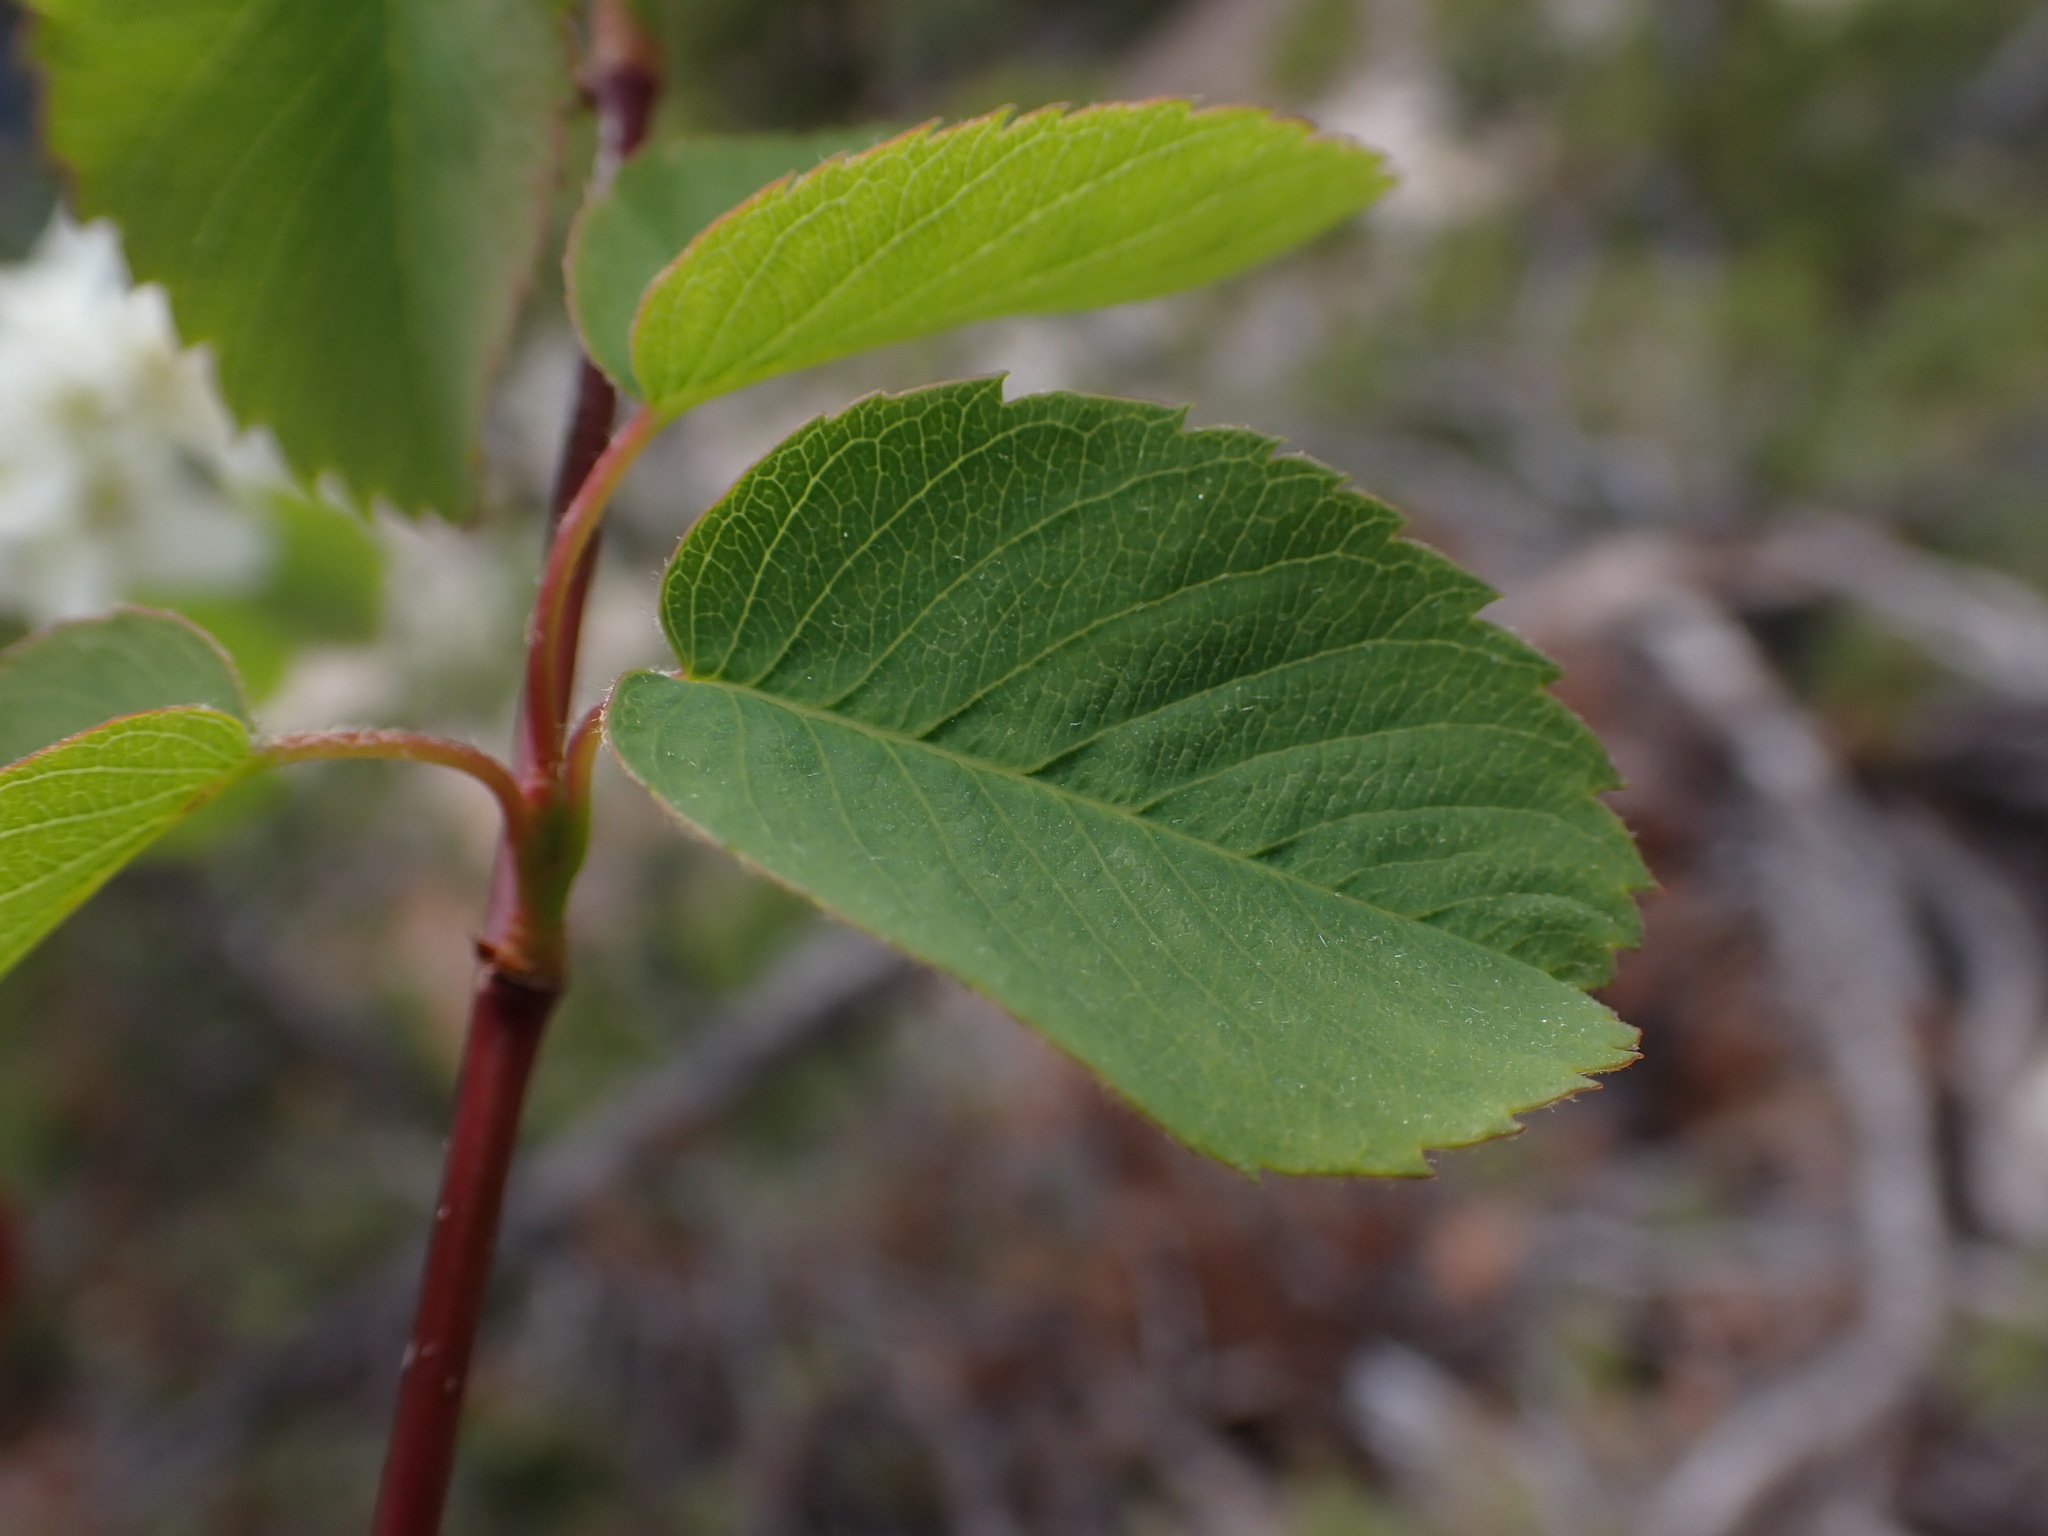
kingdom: Plantae
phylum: Tracheophyta
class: Magnoliopsida
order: Rosales
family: Rosaceae
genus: Amelanchier
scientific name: Amelanchier alnifolia
